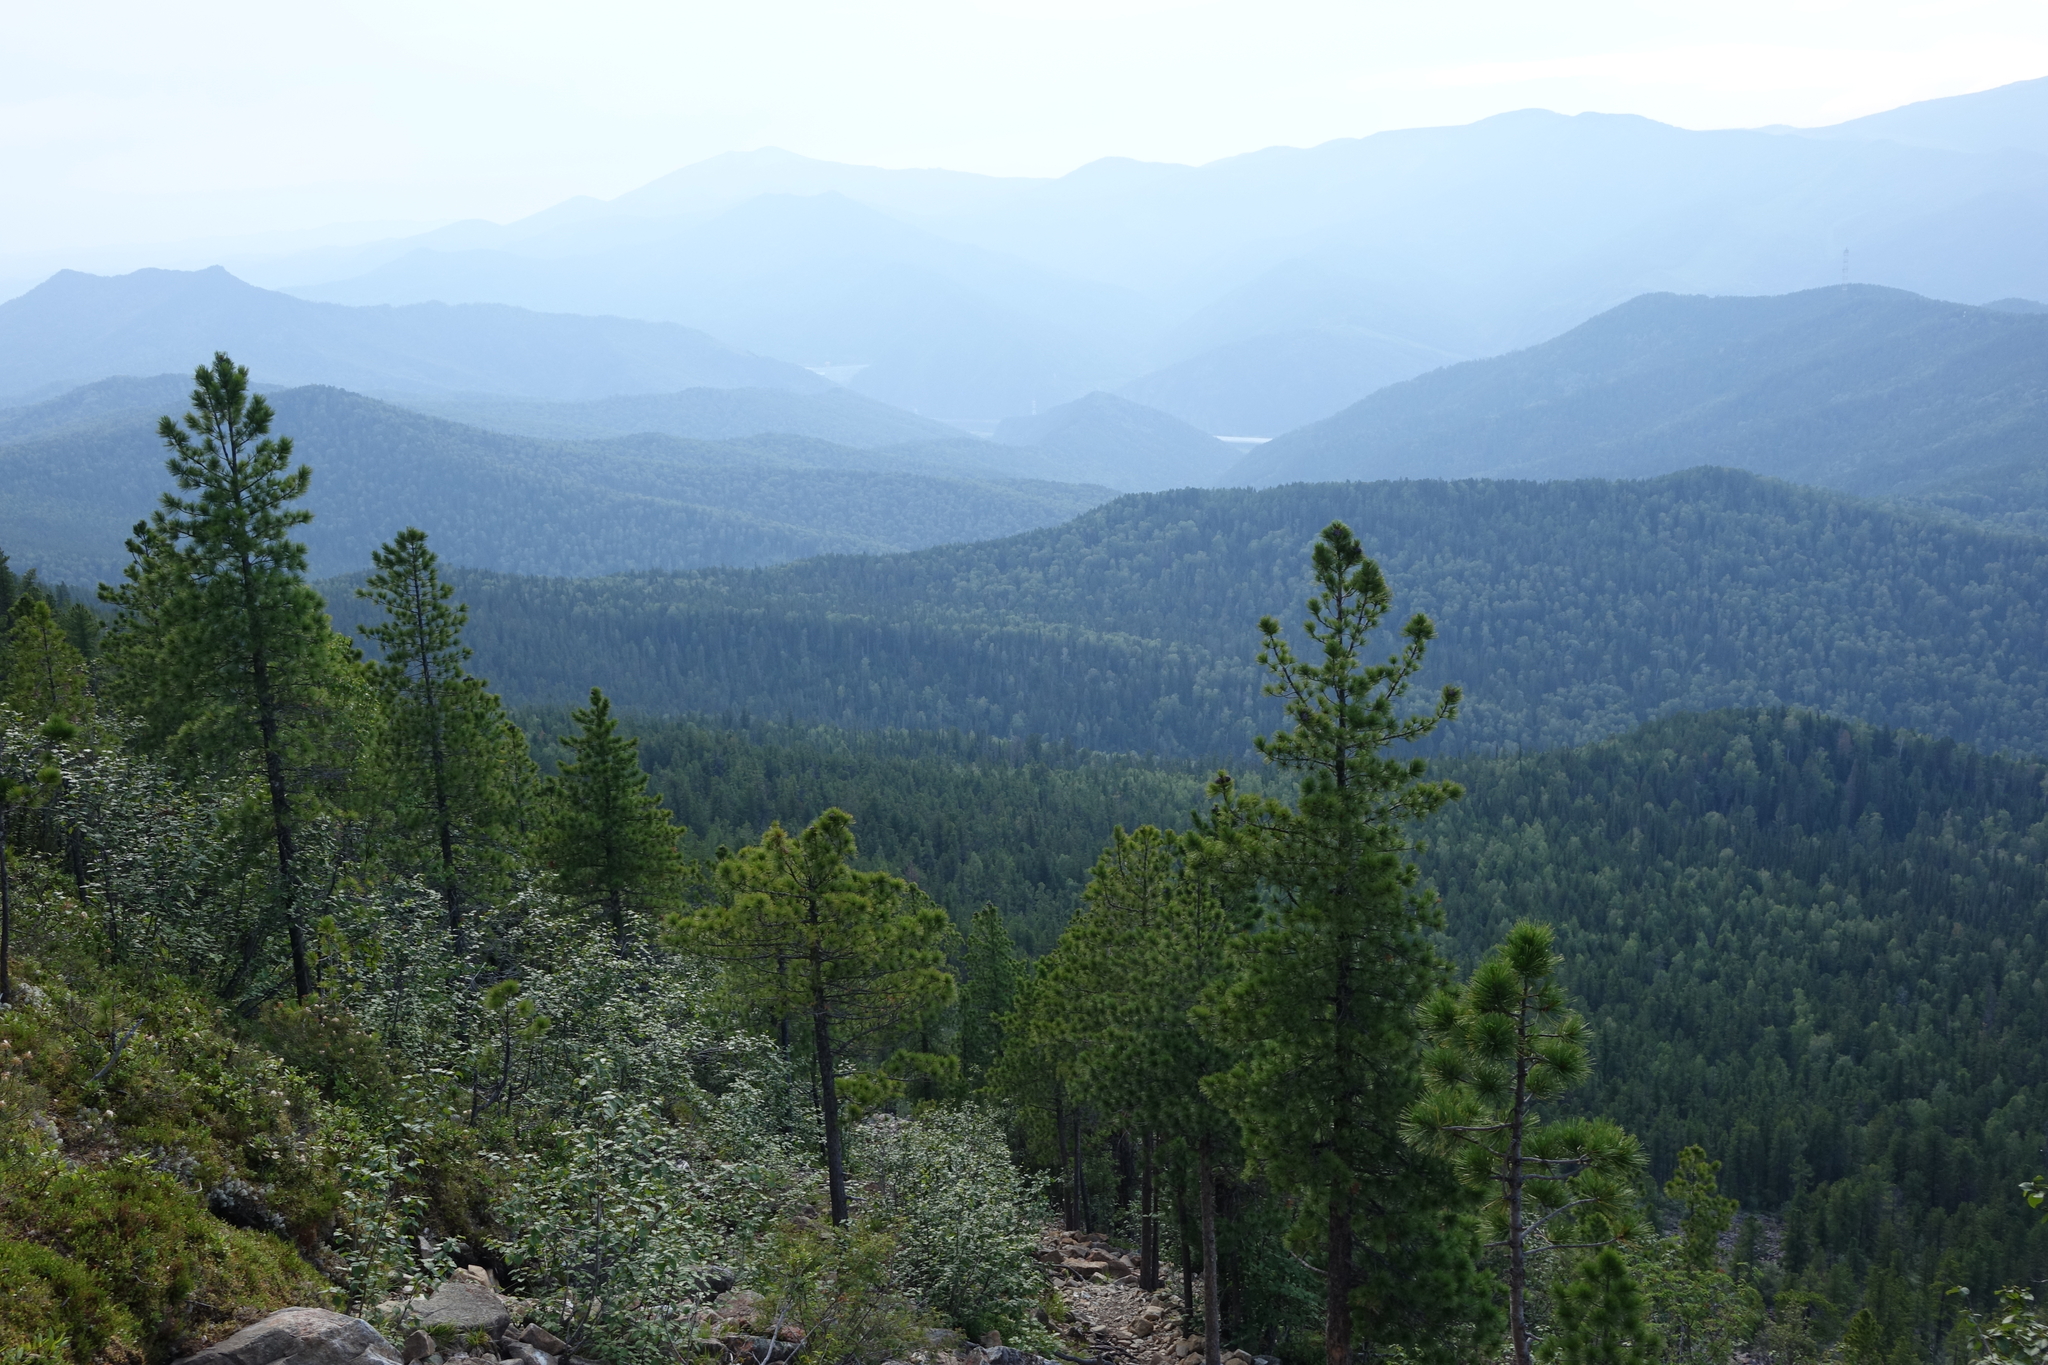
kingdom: Plantae
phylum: Tracheophyta
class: Pinopsida
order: Pinales
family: Pinaceae
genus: Pinus
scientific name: Pinus sibirica
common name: Siberian pine
